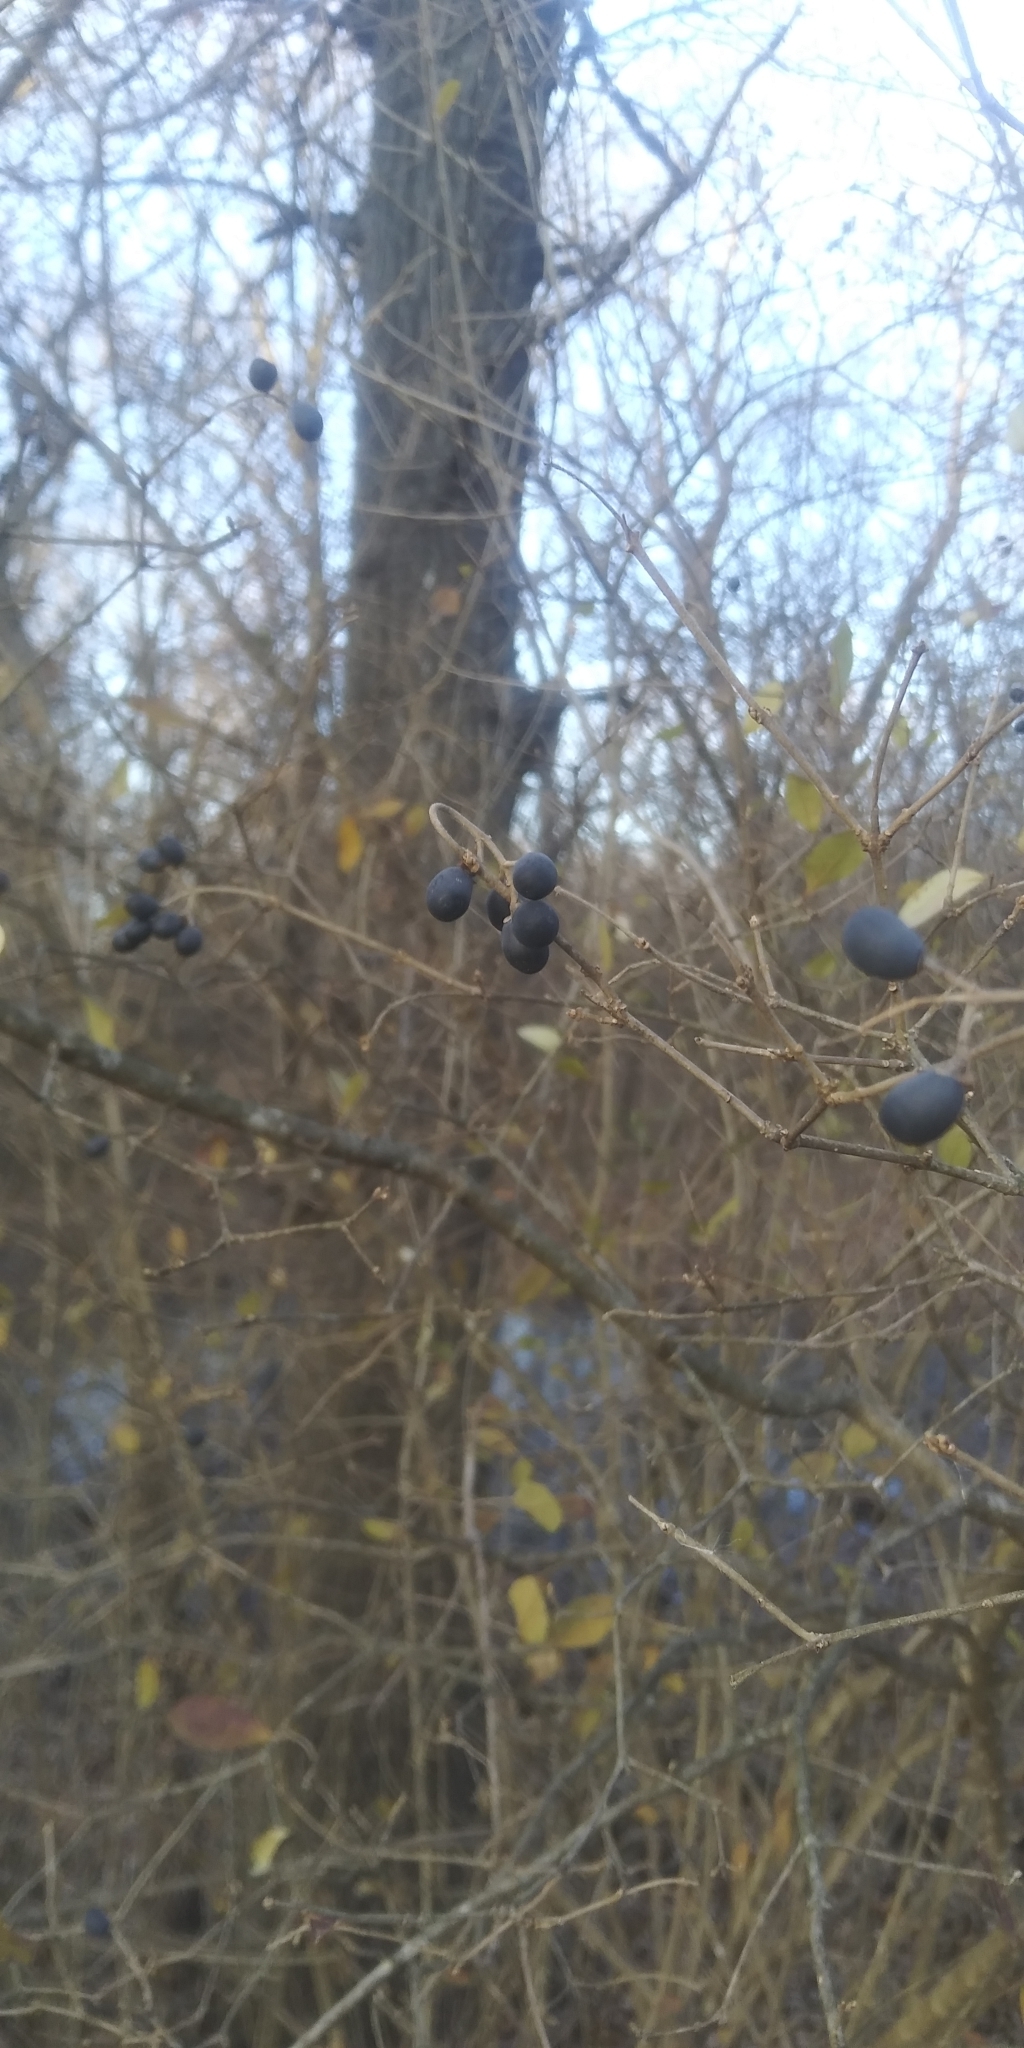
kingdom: Plantae
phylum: Tracheophyta
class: Magnoliopsida
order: Lamiales
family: Oleaceae
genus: Ligustrum
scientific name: Ligustrum sinense
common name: Chinese privet
